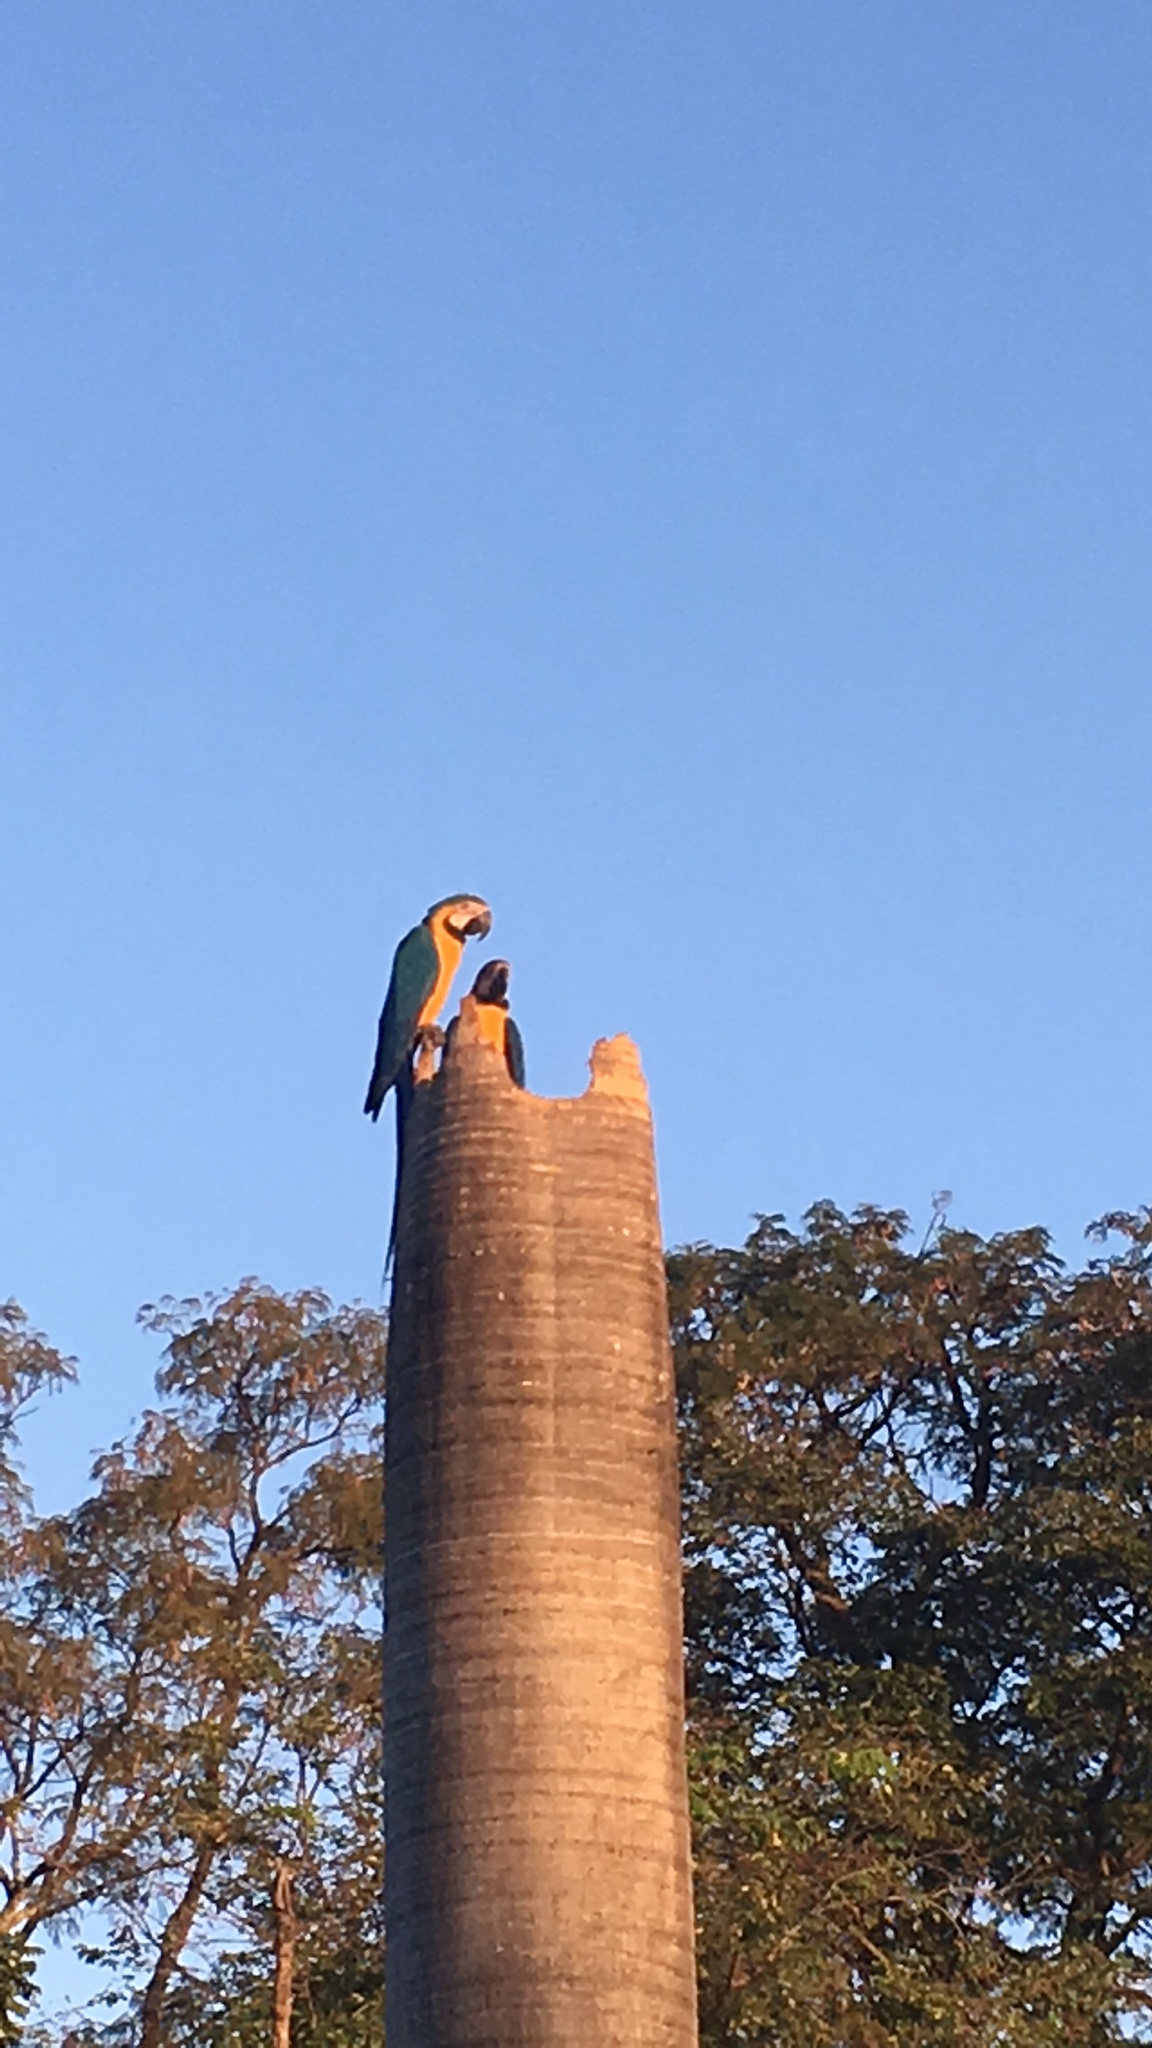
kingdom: Animalia
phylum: Chordata
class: Aves
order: Psittaciformes
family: Psittacidae
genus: Ara
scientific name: Ara ararauna
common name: Blue-and-yellow macaw
